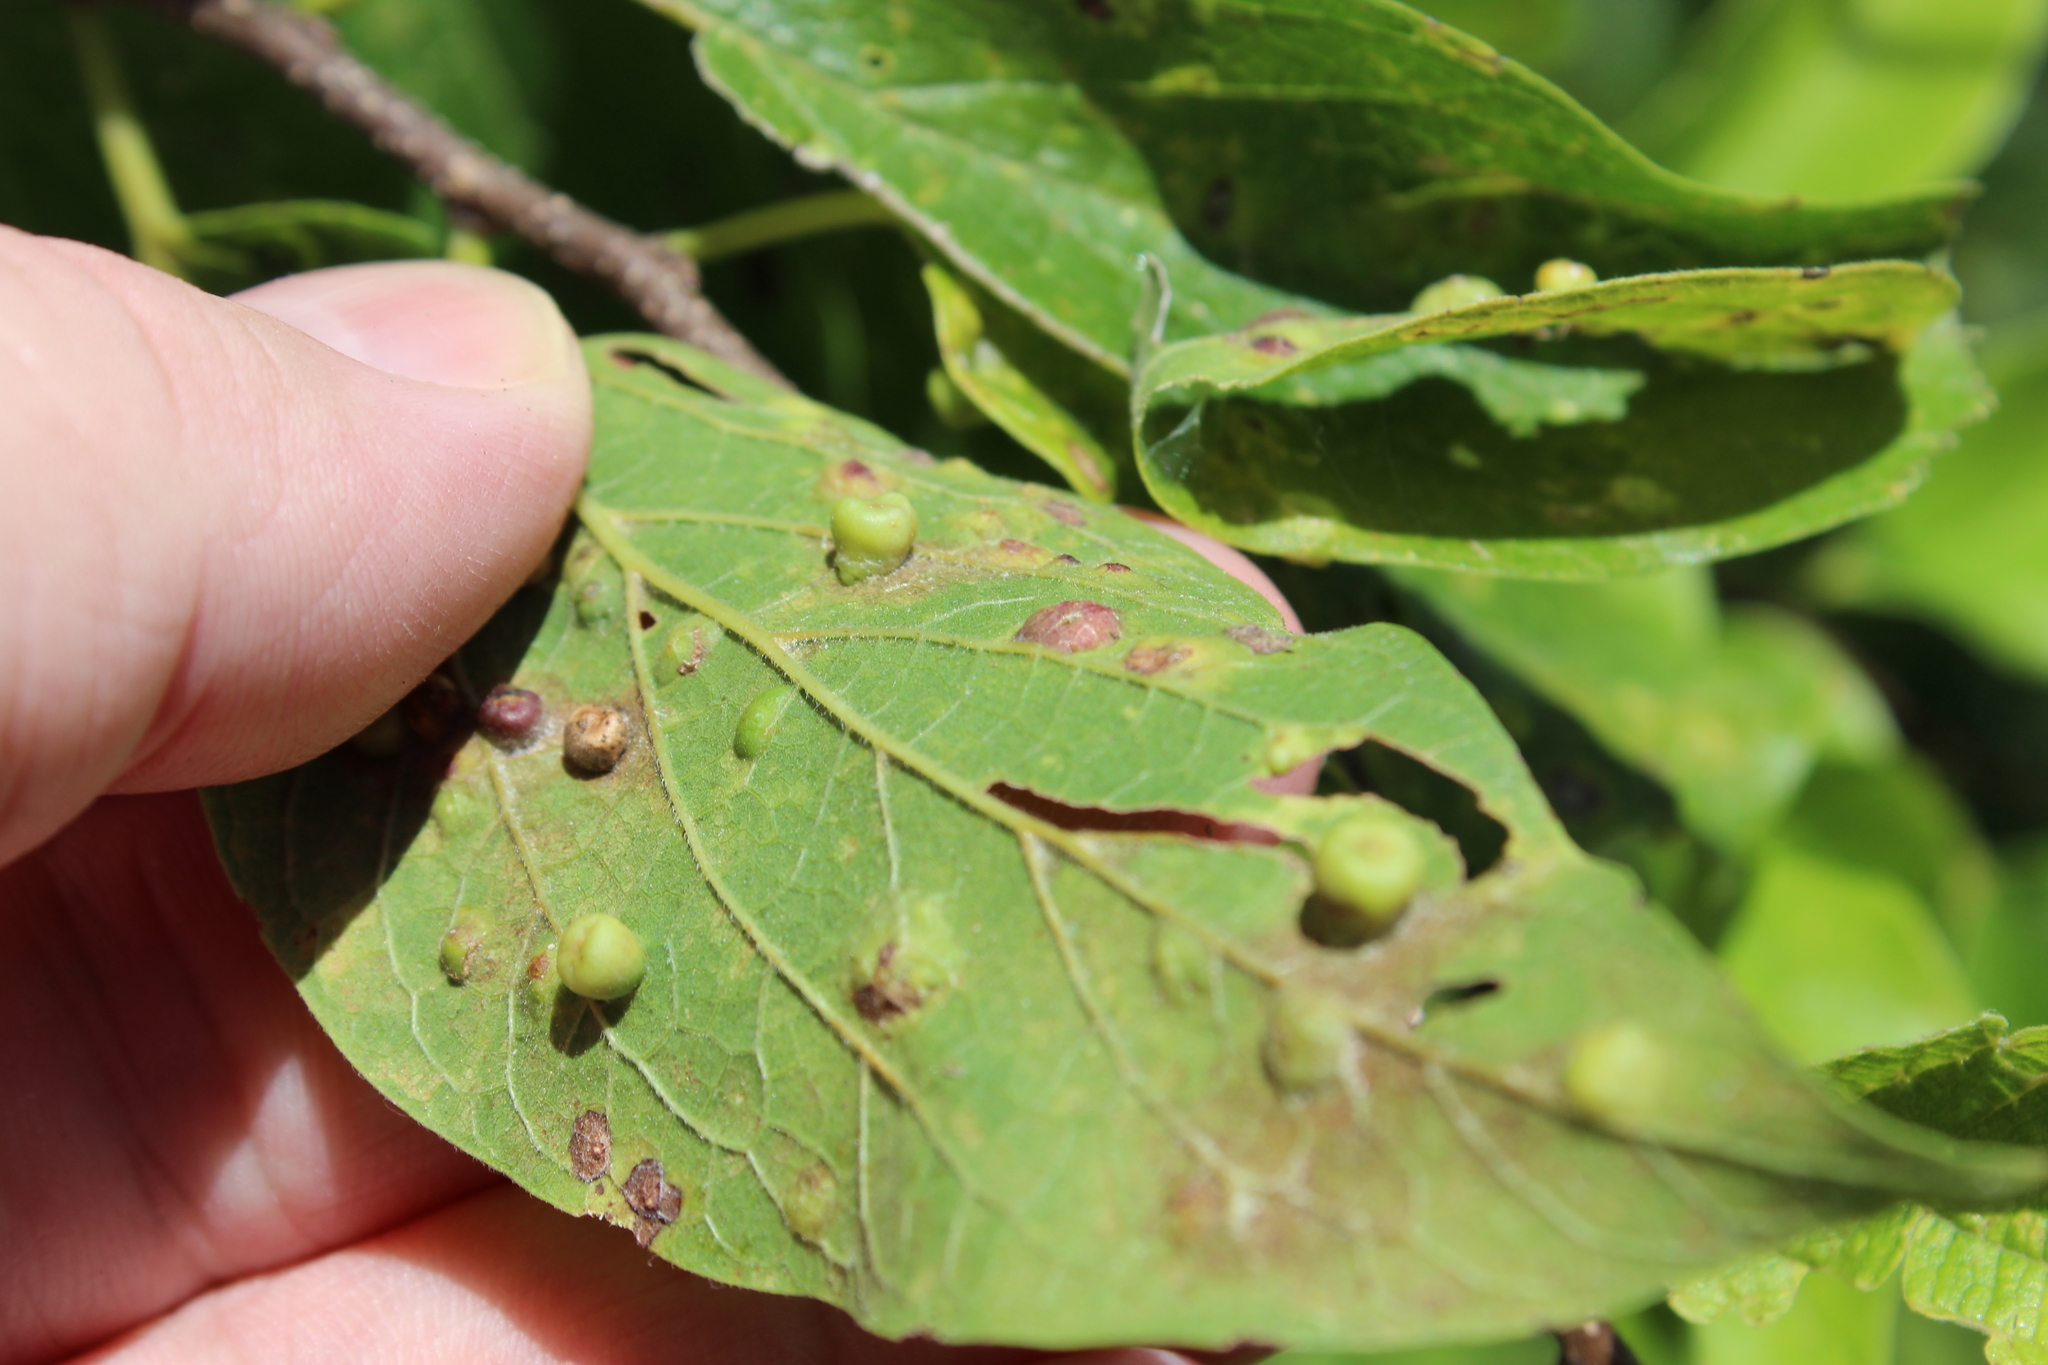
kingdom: Animalia
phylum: Arthropoda
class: Insecta
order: Hemiptera
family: Aphalaridae
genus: Pachypsylla
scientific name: Pachypsylla celtidismamma
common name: Hackberry nipplegall psyllid
